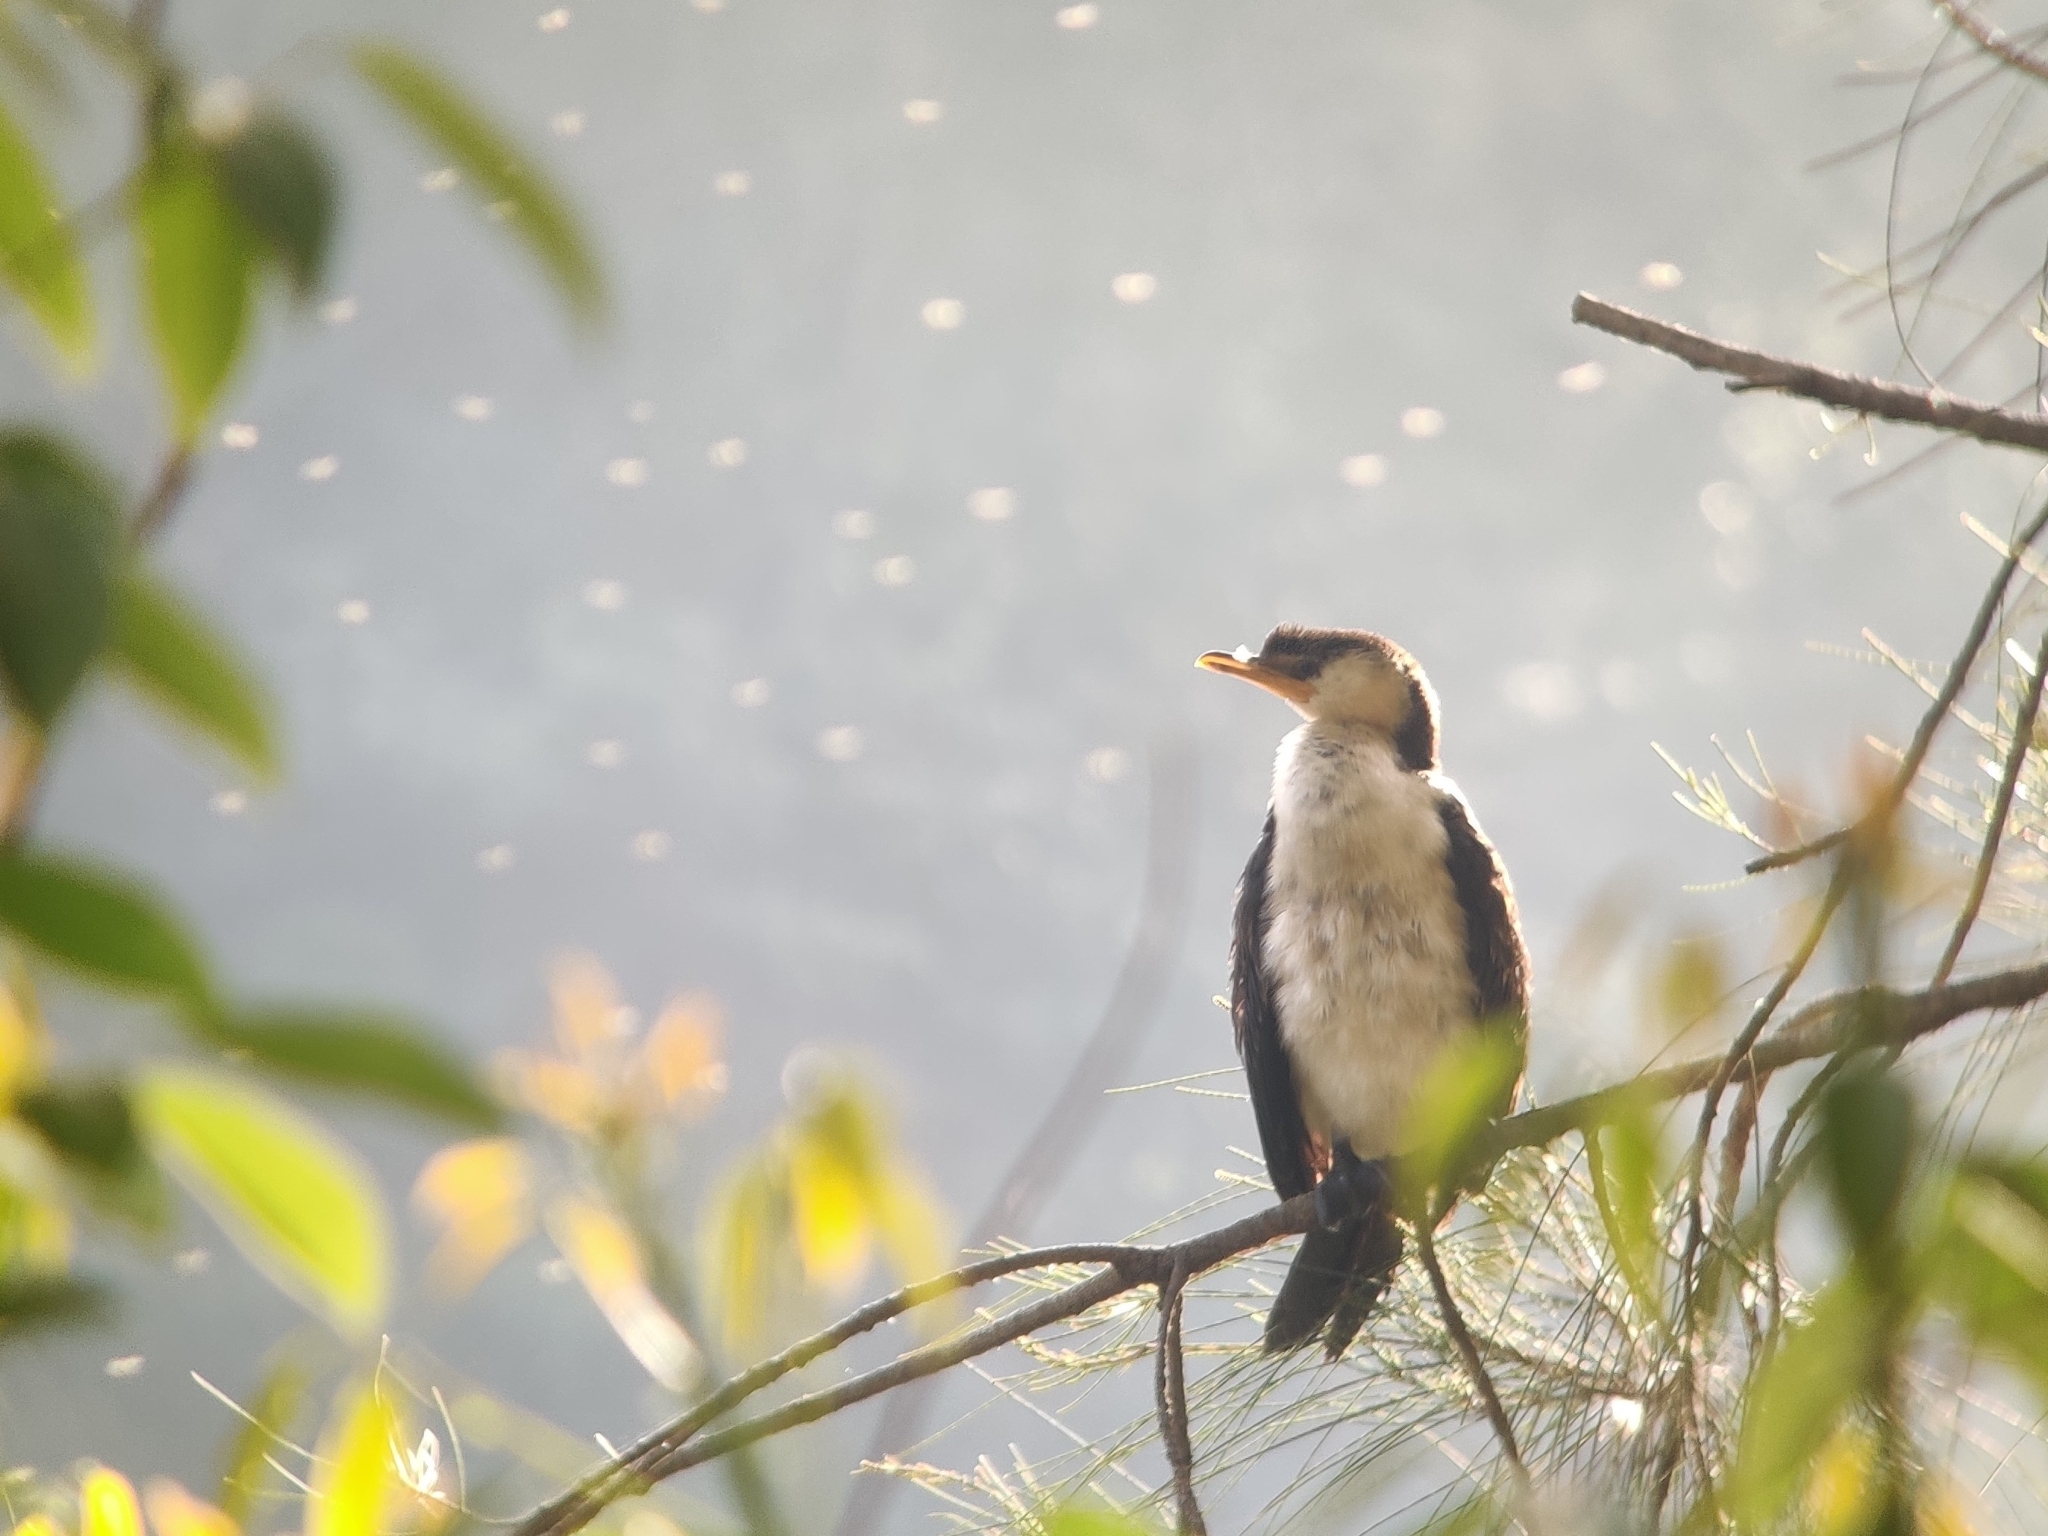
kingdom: Animalia
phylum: Chordata
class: Aves
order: Suliformes
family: Phalacrocoracidae
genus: Microcarbo
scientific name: Microcarbo melanoleucos
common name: Little pied cormorant
